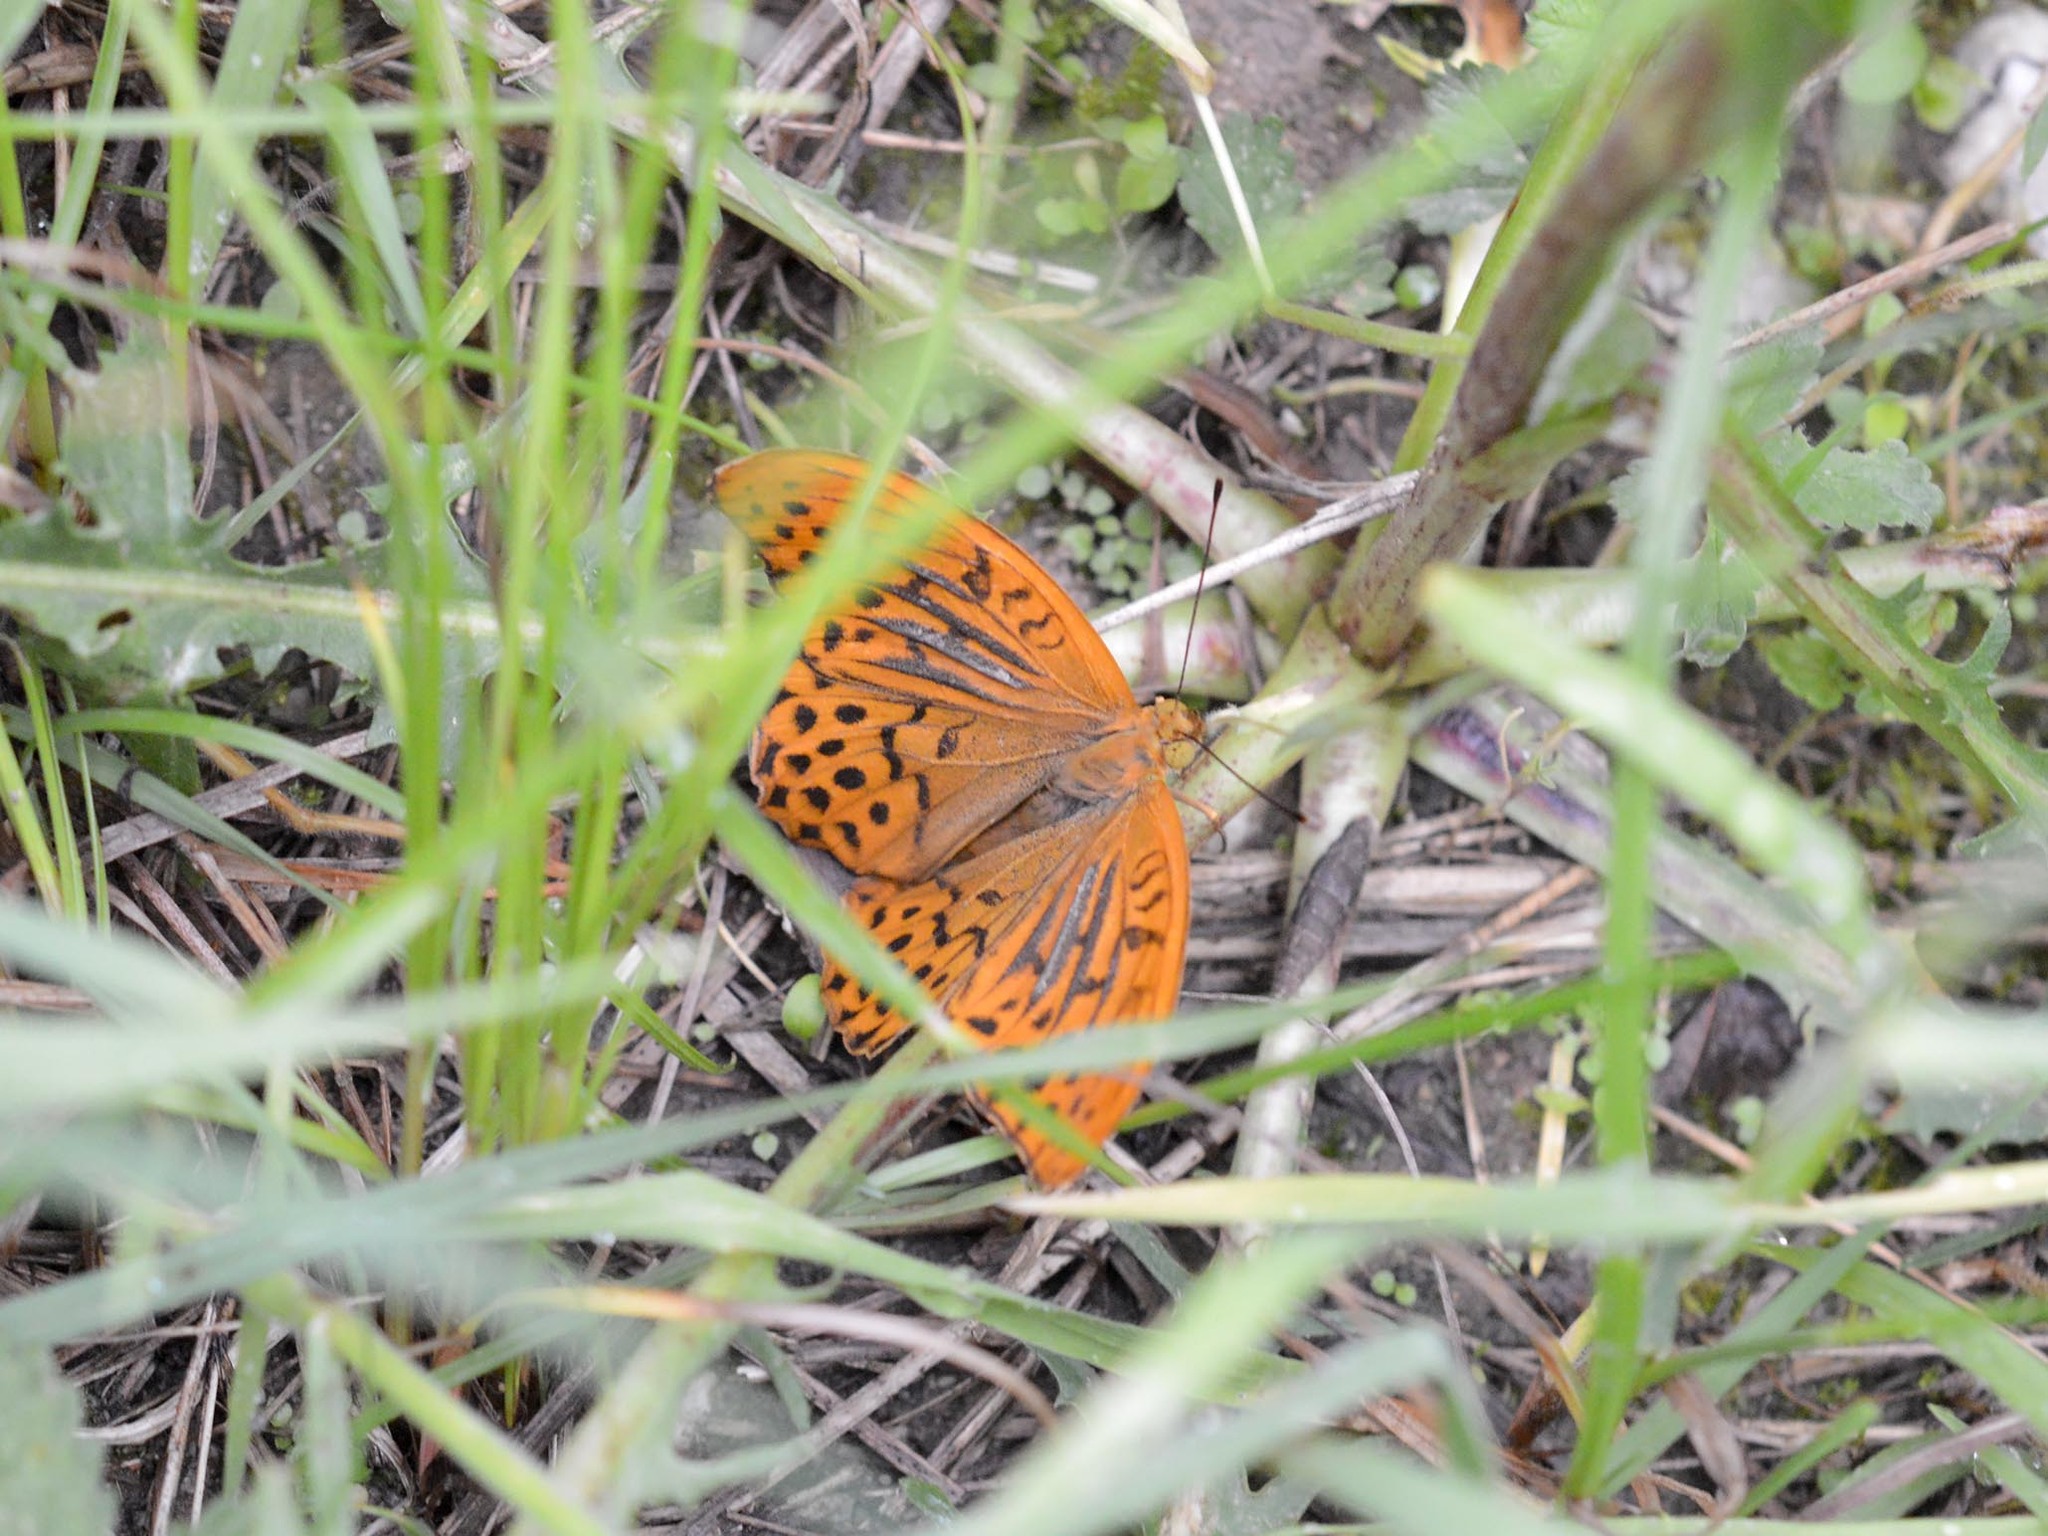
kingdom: Animalia
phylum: Arthropoda
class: Insecta
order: Lepidoptera
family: Nymphalidae
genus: Argynnis
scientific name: Argynnis paphia
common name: Silver-washed fritillary
